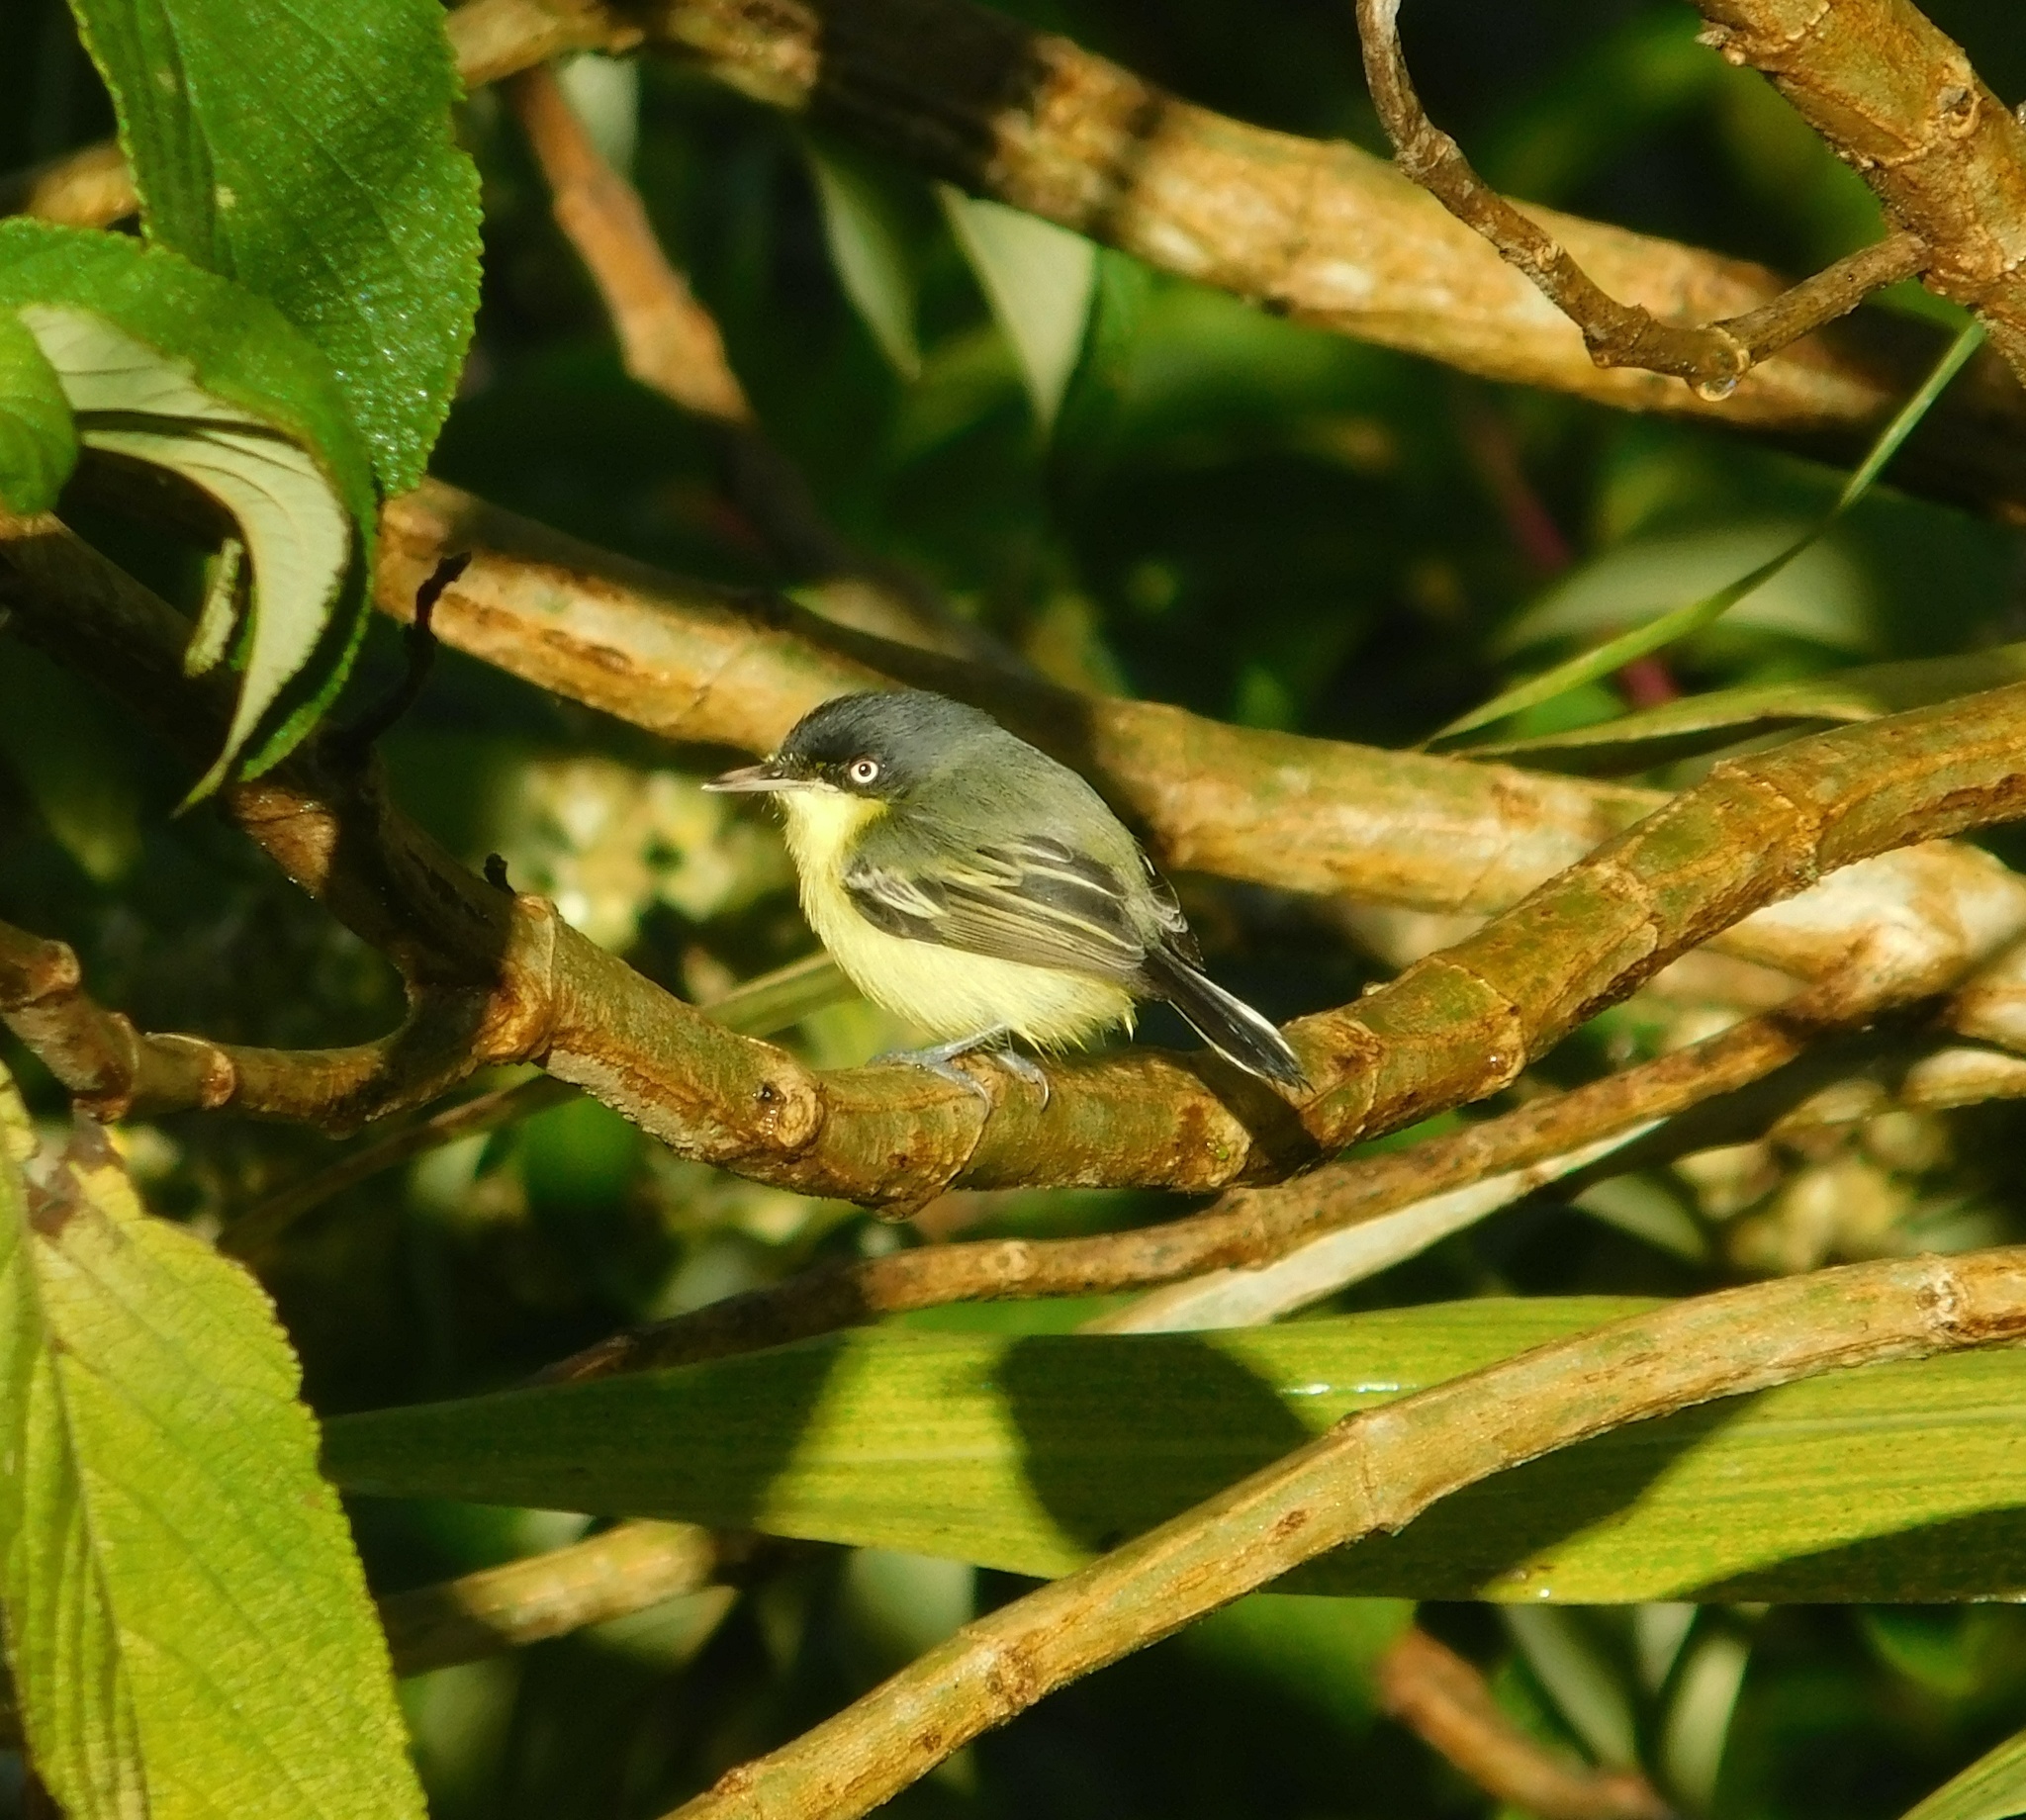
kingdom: Animalia
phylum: Chordata
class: Aves
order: Passeriformes
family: Tyrannidae
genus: Todirostrum
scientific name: Todirostrum cinereum
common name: Common tody-flycatcher
